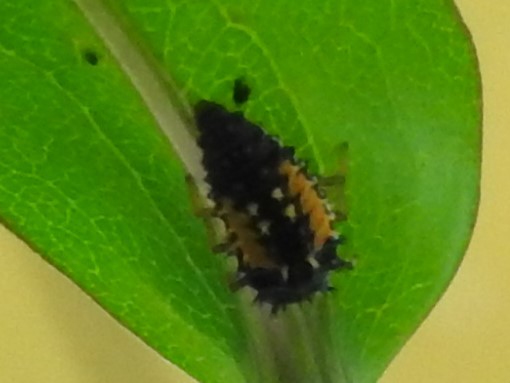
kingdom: Animalia
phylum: Arthropoda
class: Insecta
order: Coleoptera
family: Coccinellidae
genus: Harmonia
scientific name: Harmonia axyridis
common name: Harlequin ladybird
